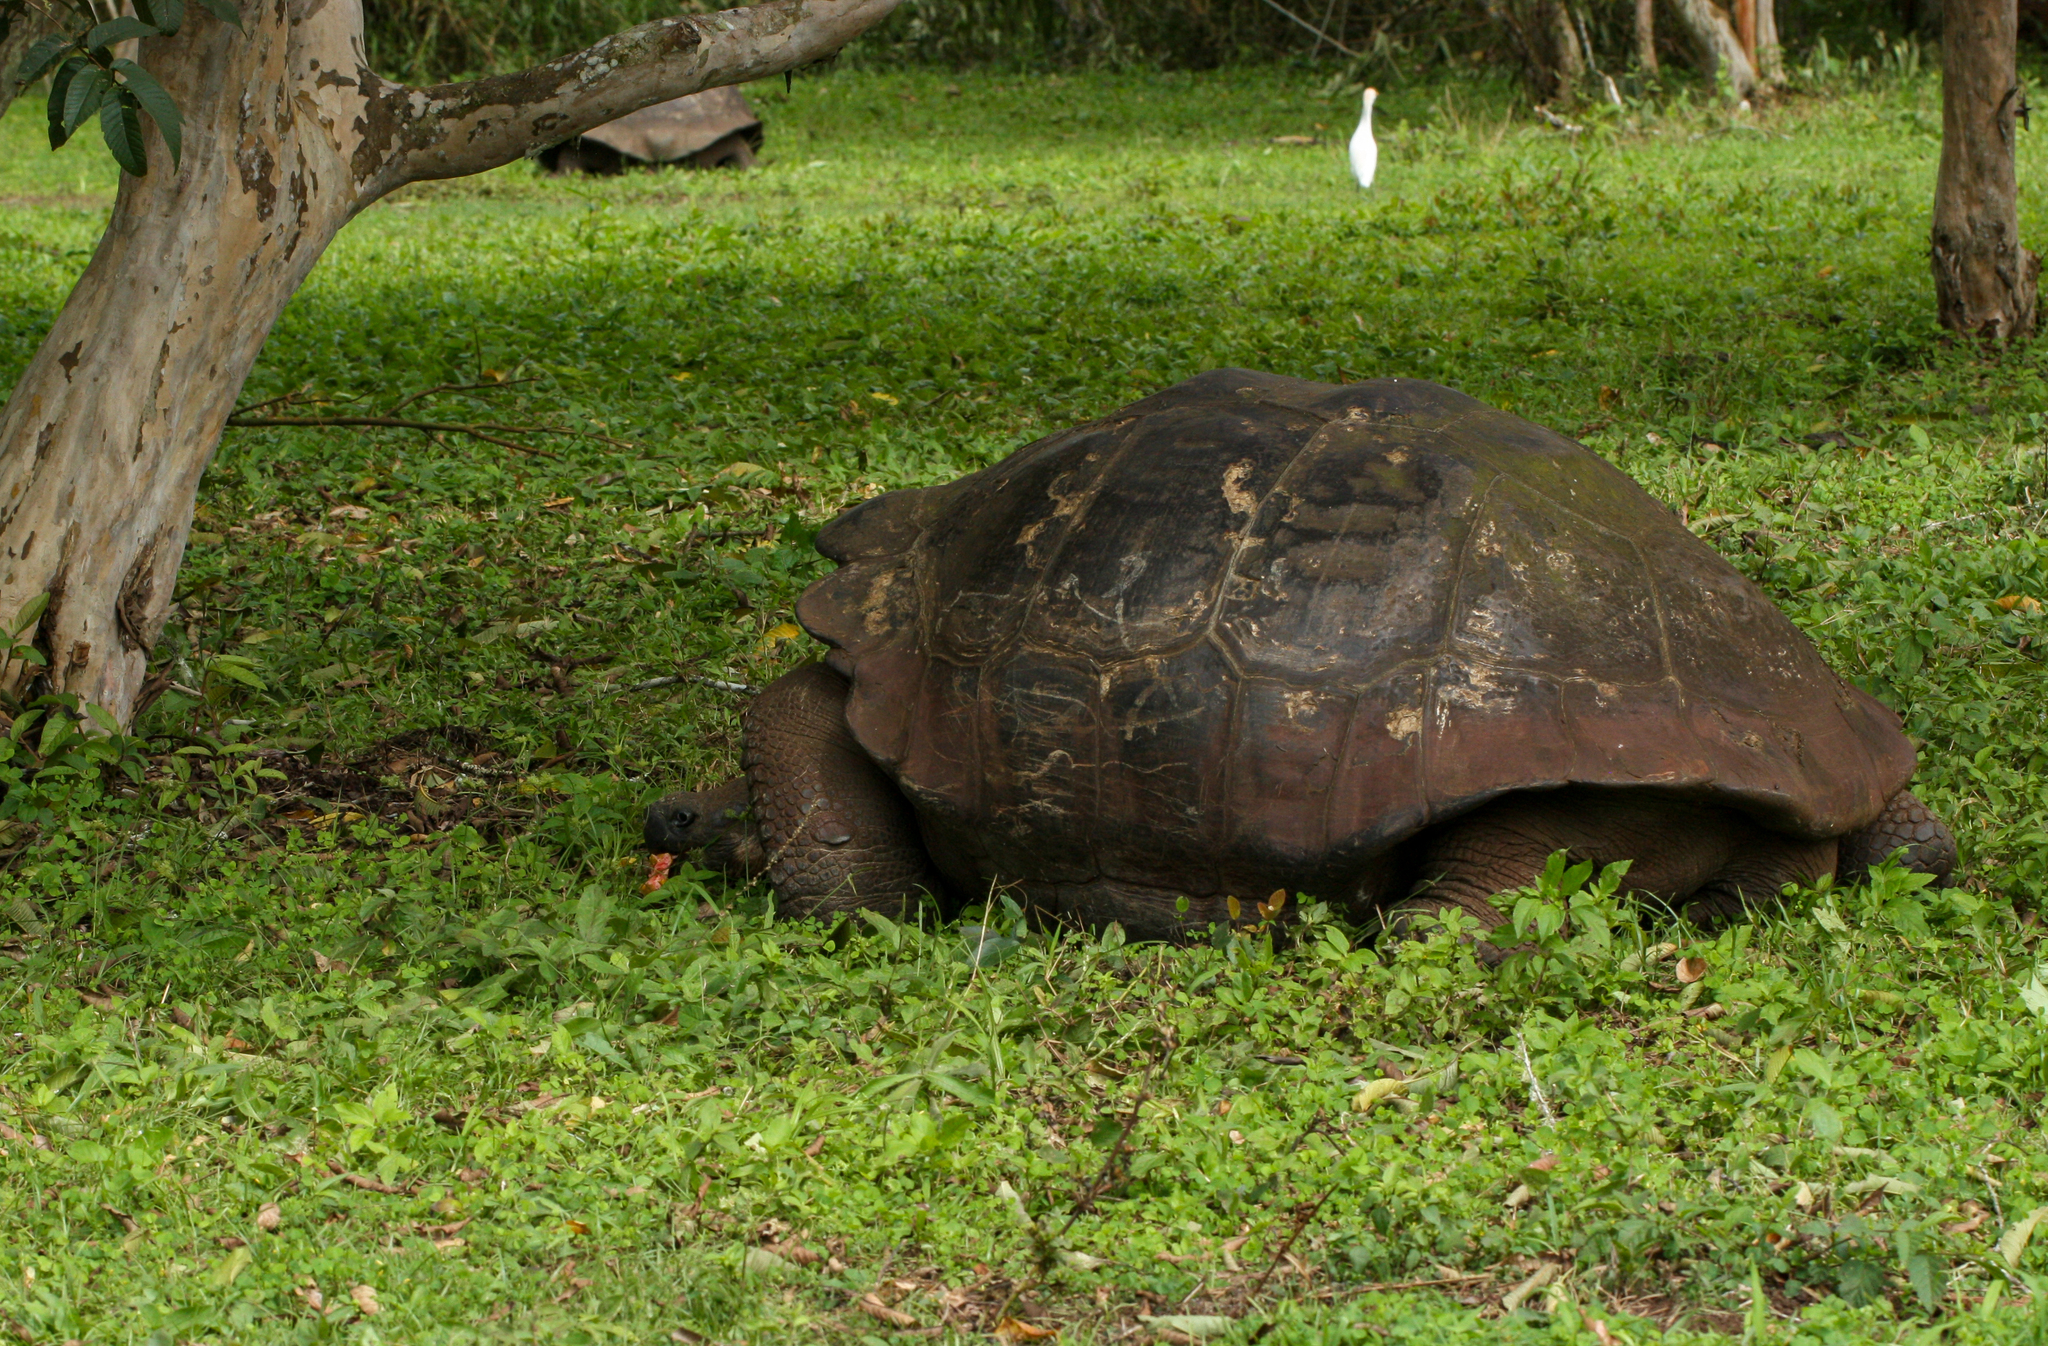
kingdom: Animalia
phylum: Chordata
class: Testudines
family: Testudinidae
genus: Chelonoidis
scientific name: Chelonoidis porteri
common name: Indefatigable island giant tortoise
